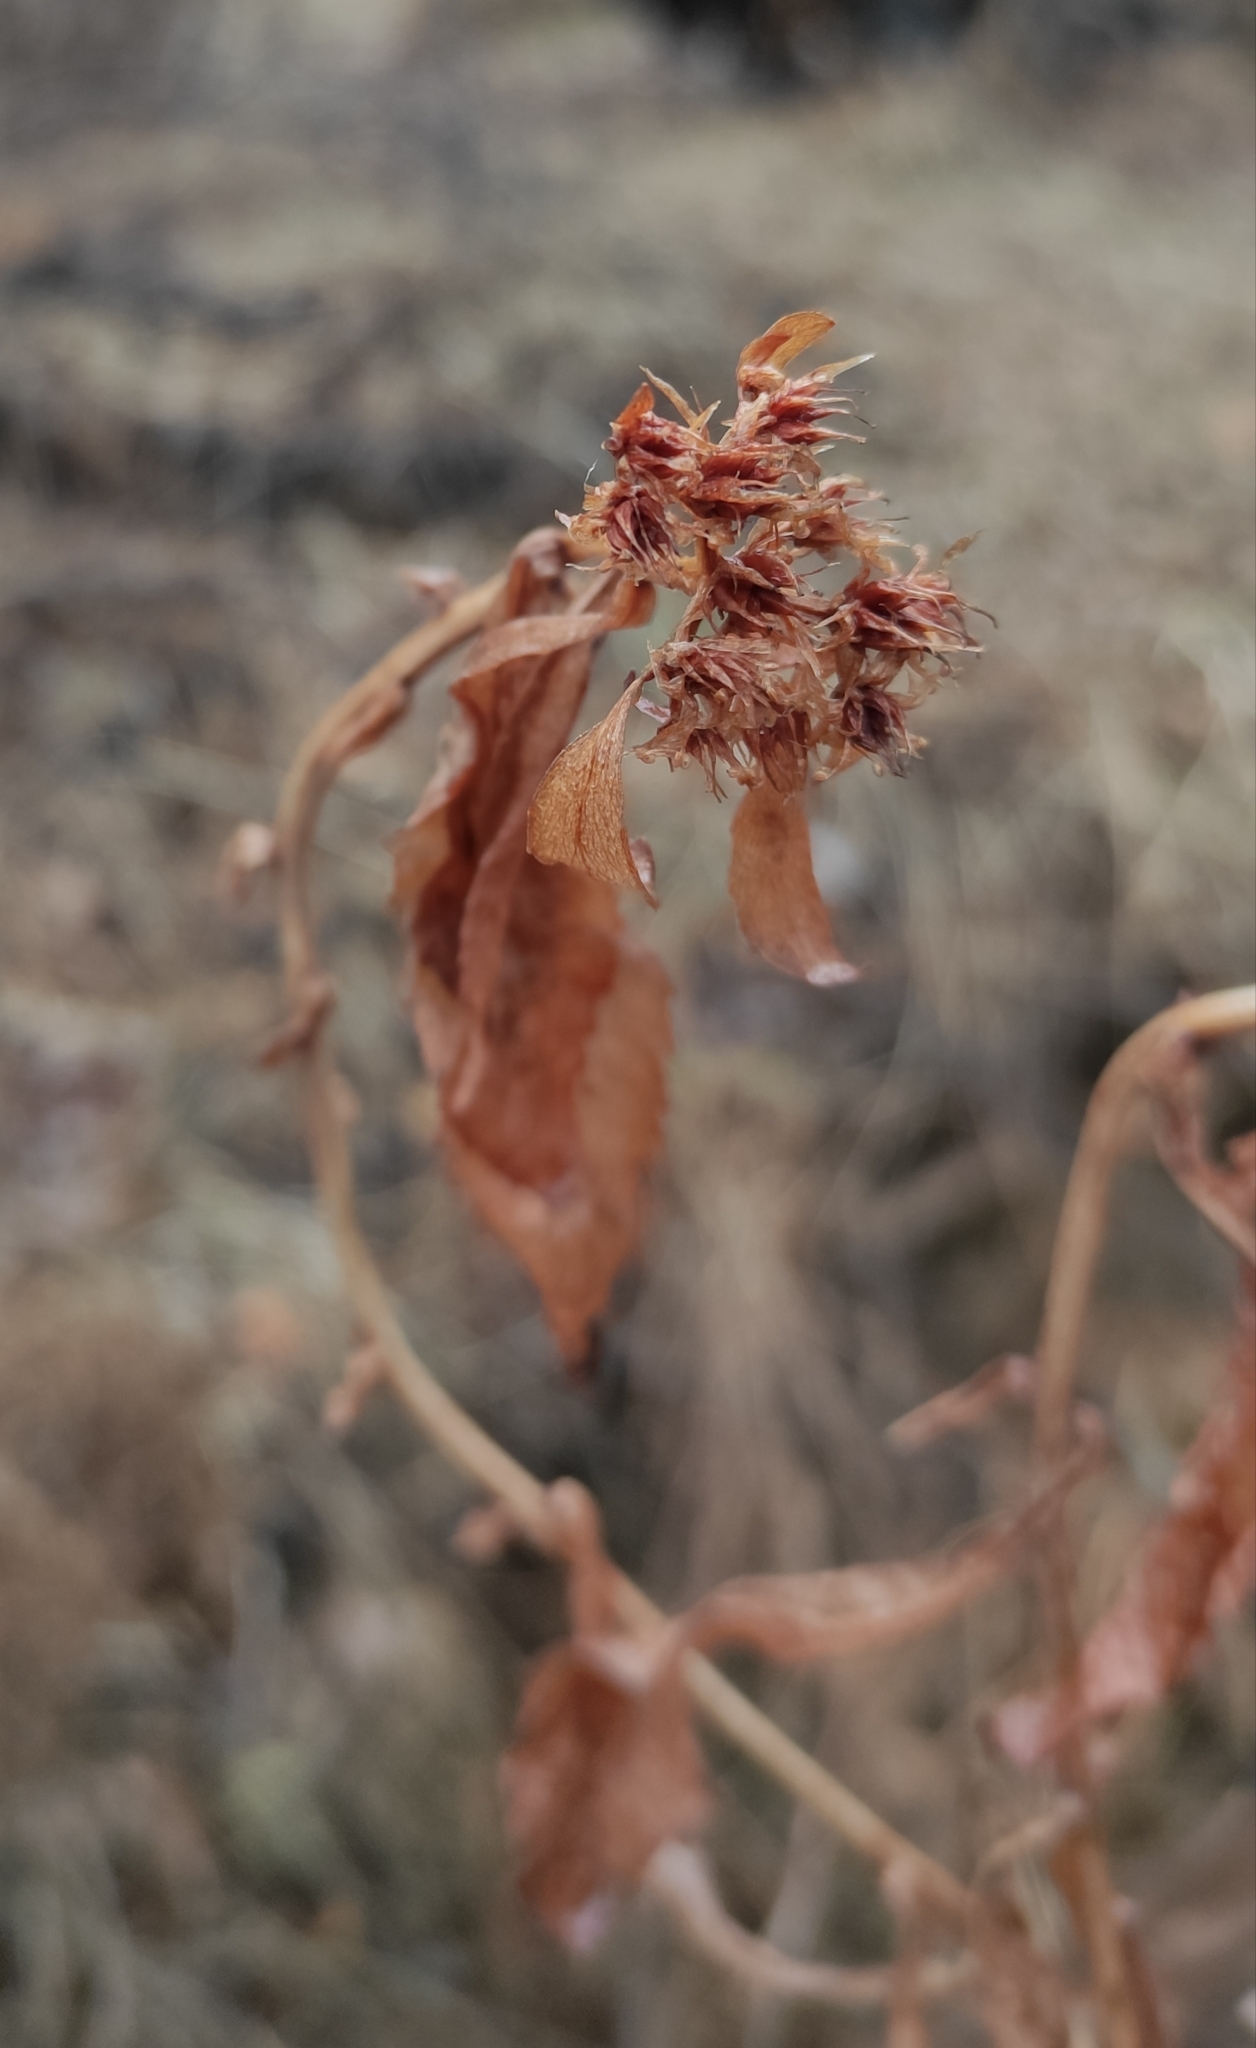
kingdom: Plantae
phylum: Tracheophyta
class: Magnoliopsida
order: Saxifragales
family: Crassulaceae
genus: Hylotelephium
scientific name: Hylotelephium telephium
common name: Live-forever
